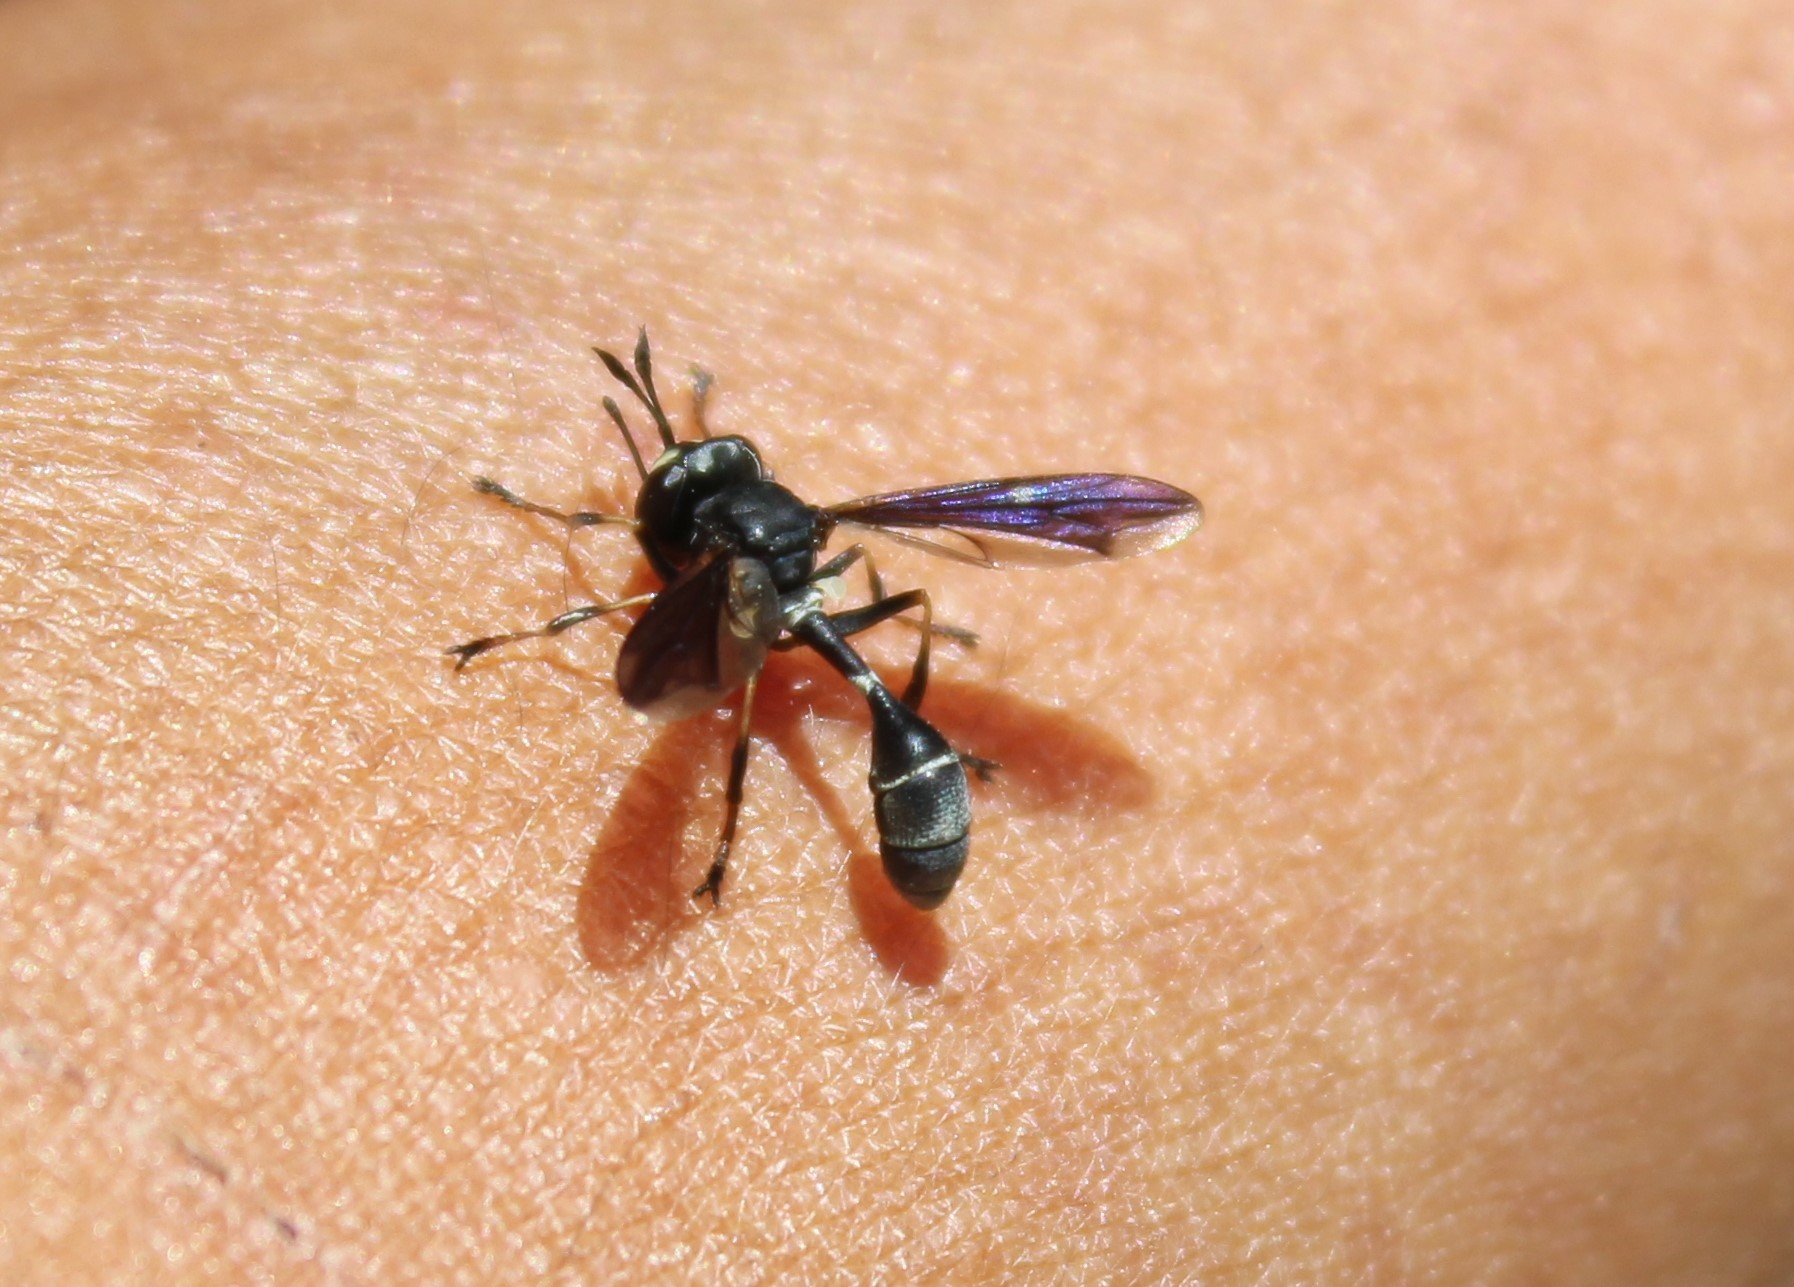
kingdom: Animalia
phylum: Arthropoda
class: Insecta
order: Diptera
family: Conopidae
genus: Physocephala
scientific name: Physocephala tibialis
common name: Common eastern physocephala
